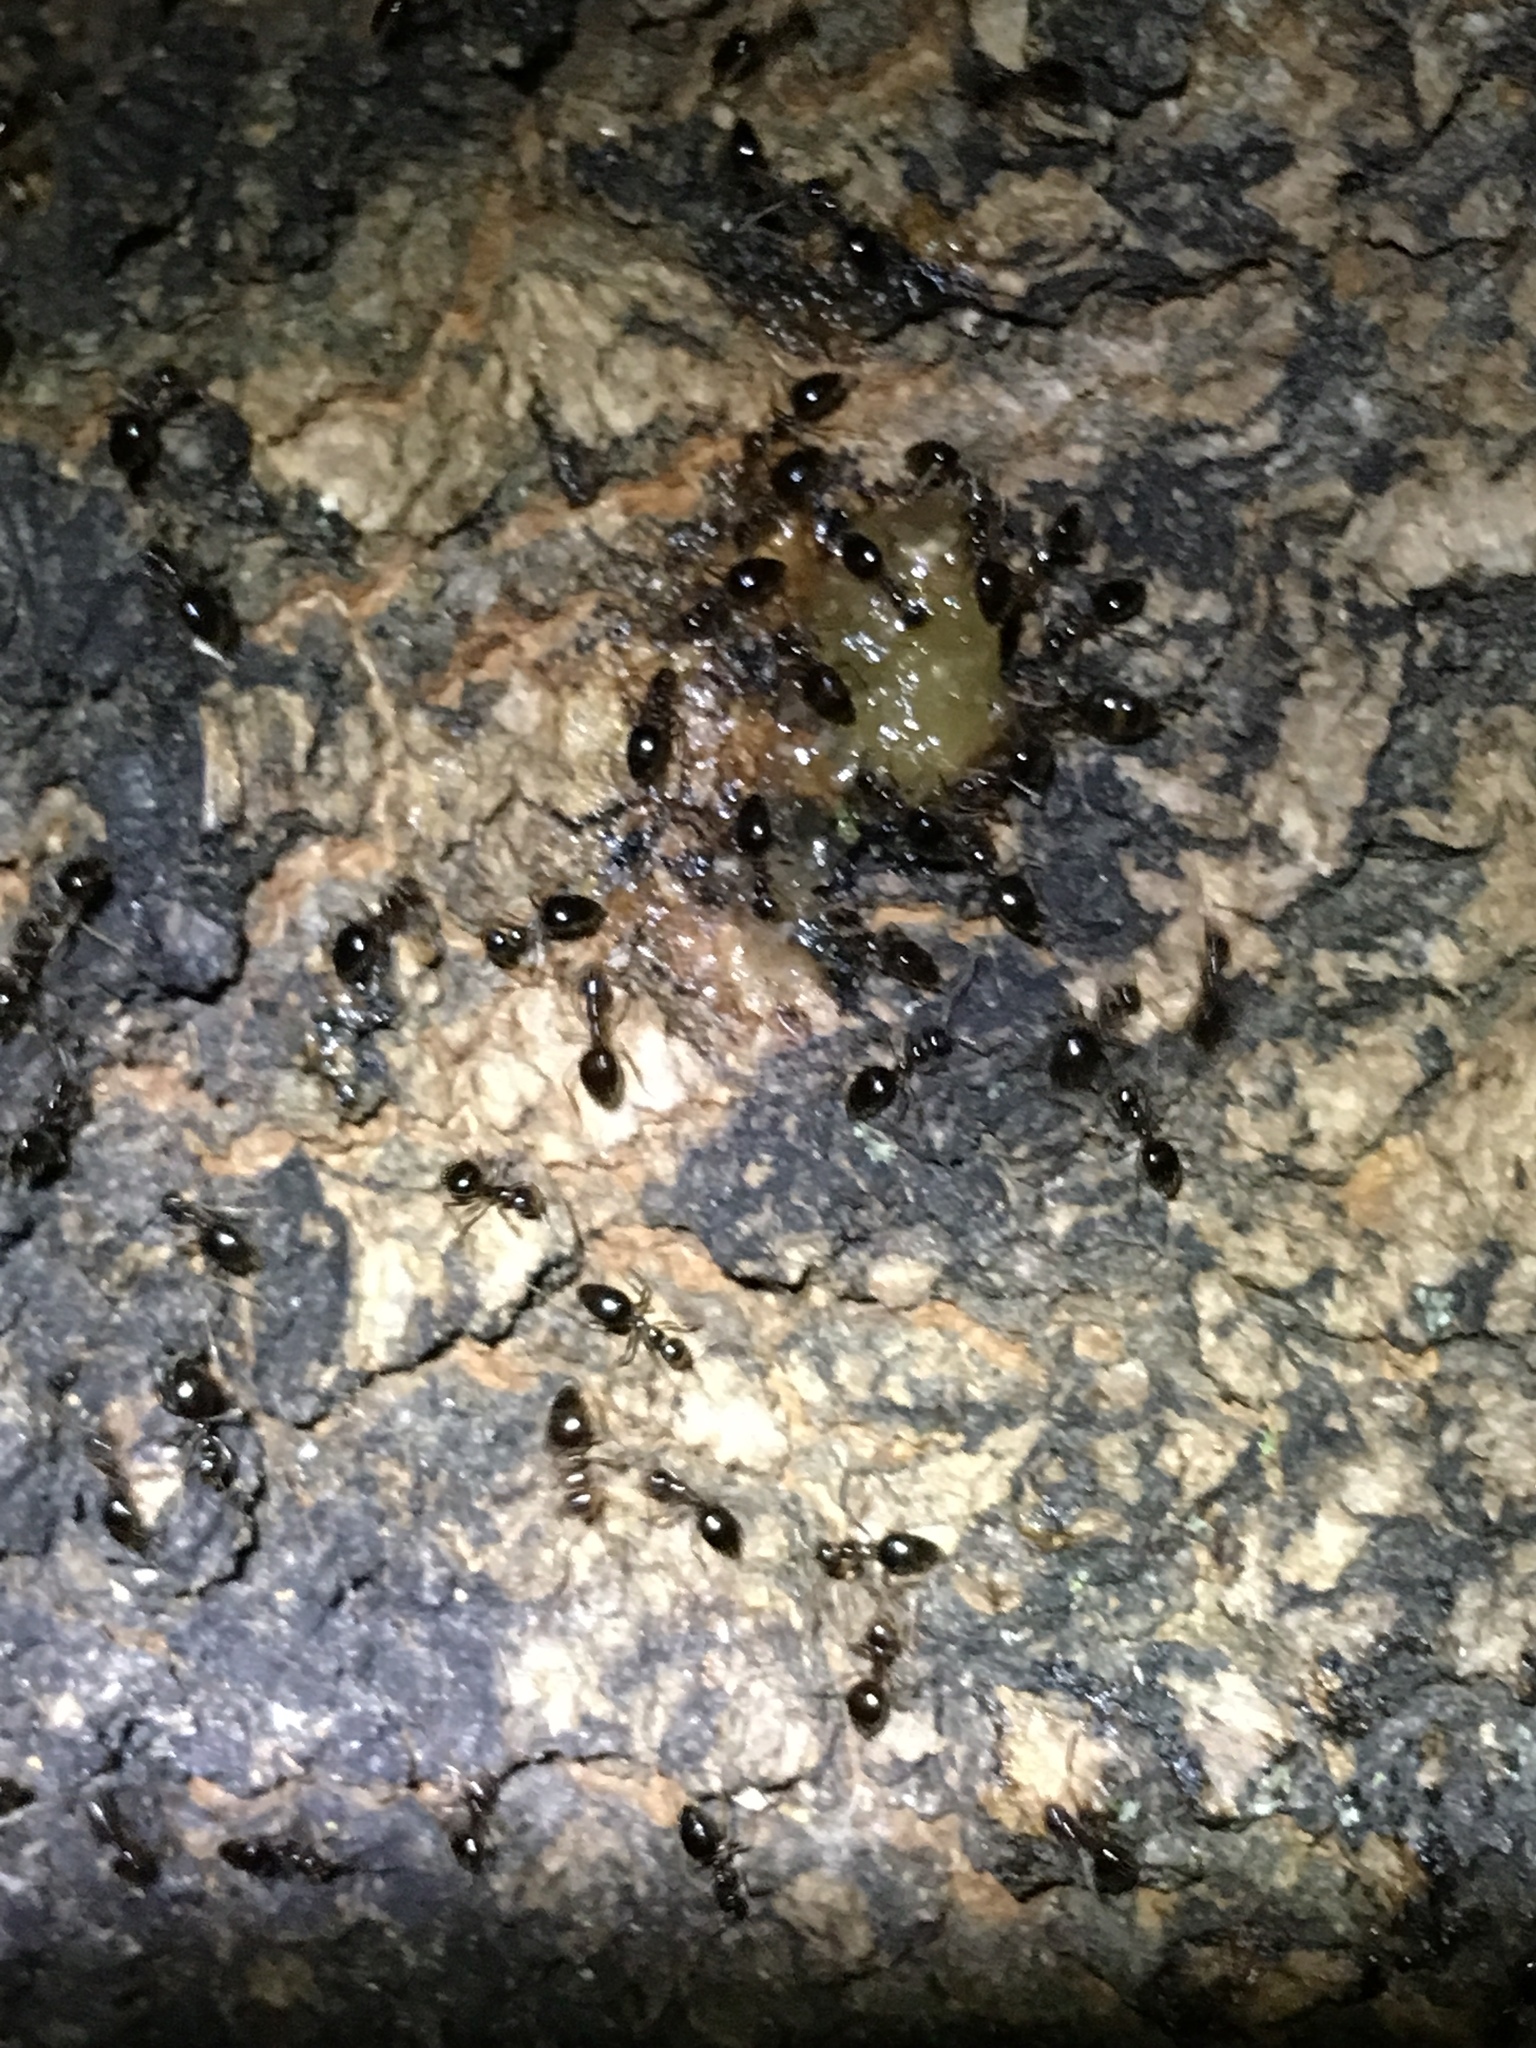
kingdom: Animalia
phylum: Arthropoda
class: Insecta
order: Hymenoptera
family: Formicidae
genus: Prenolepis
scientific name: Prenolepis imparis
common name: Small honey ant
